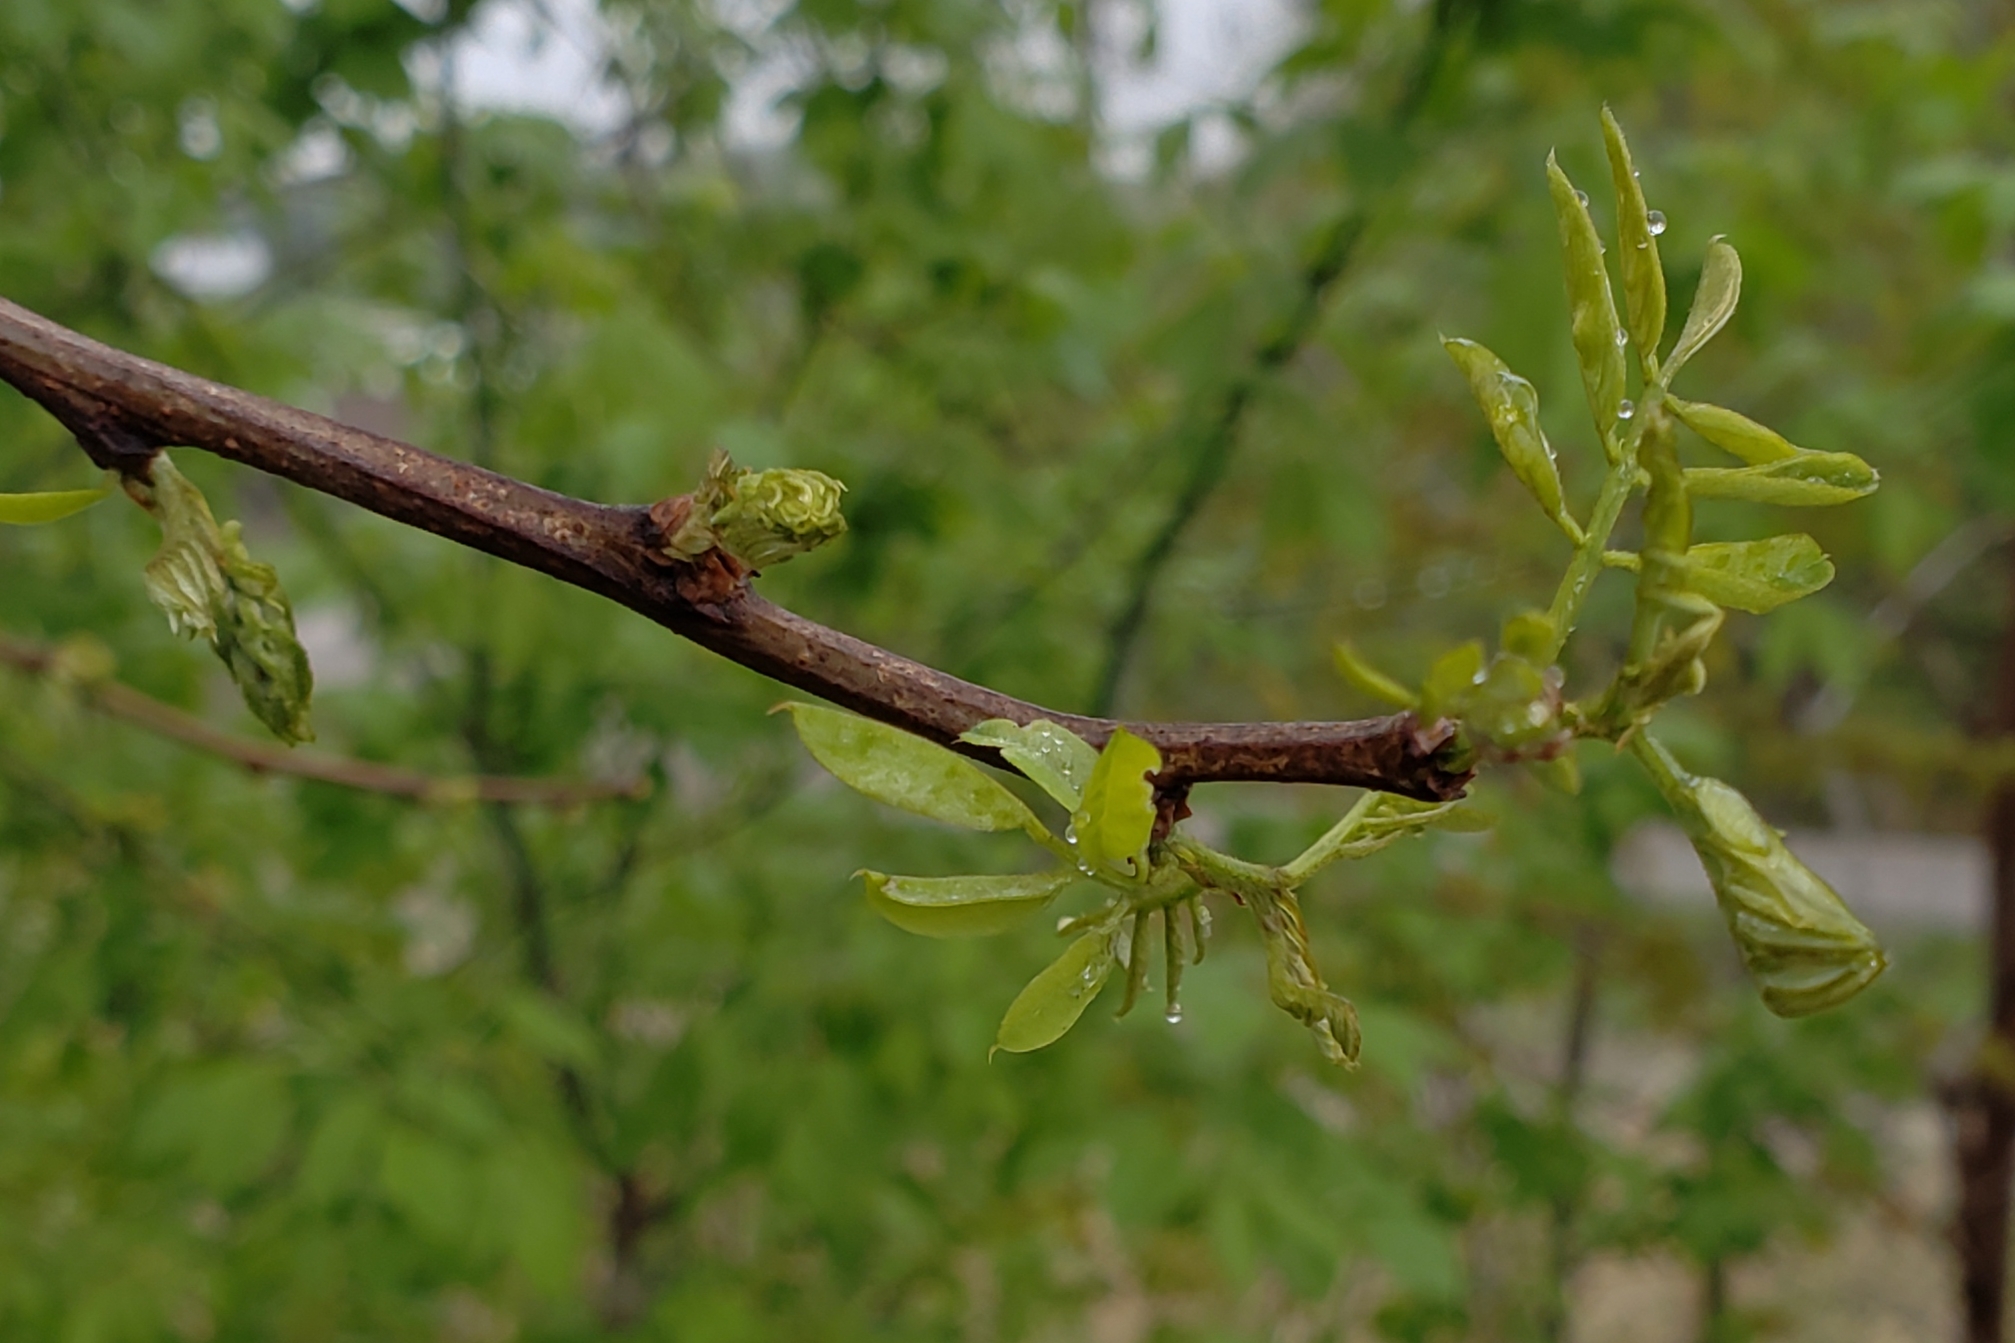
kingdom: Plantae
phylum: Tracheophyta
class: Magnoliopsida
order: Fabales
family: Fabaceae
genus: Robinia
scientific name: Robinia pseudoacacia
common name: Black locust
